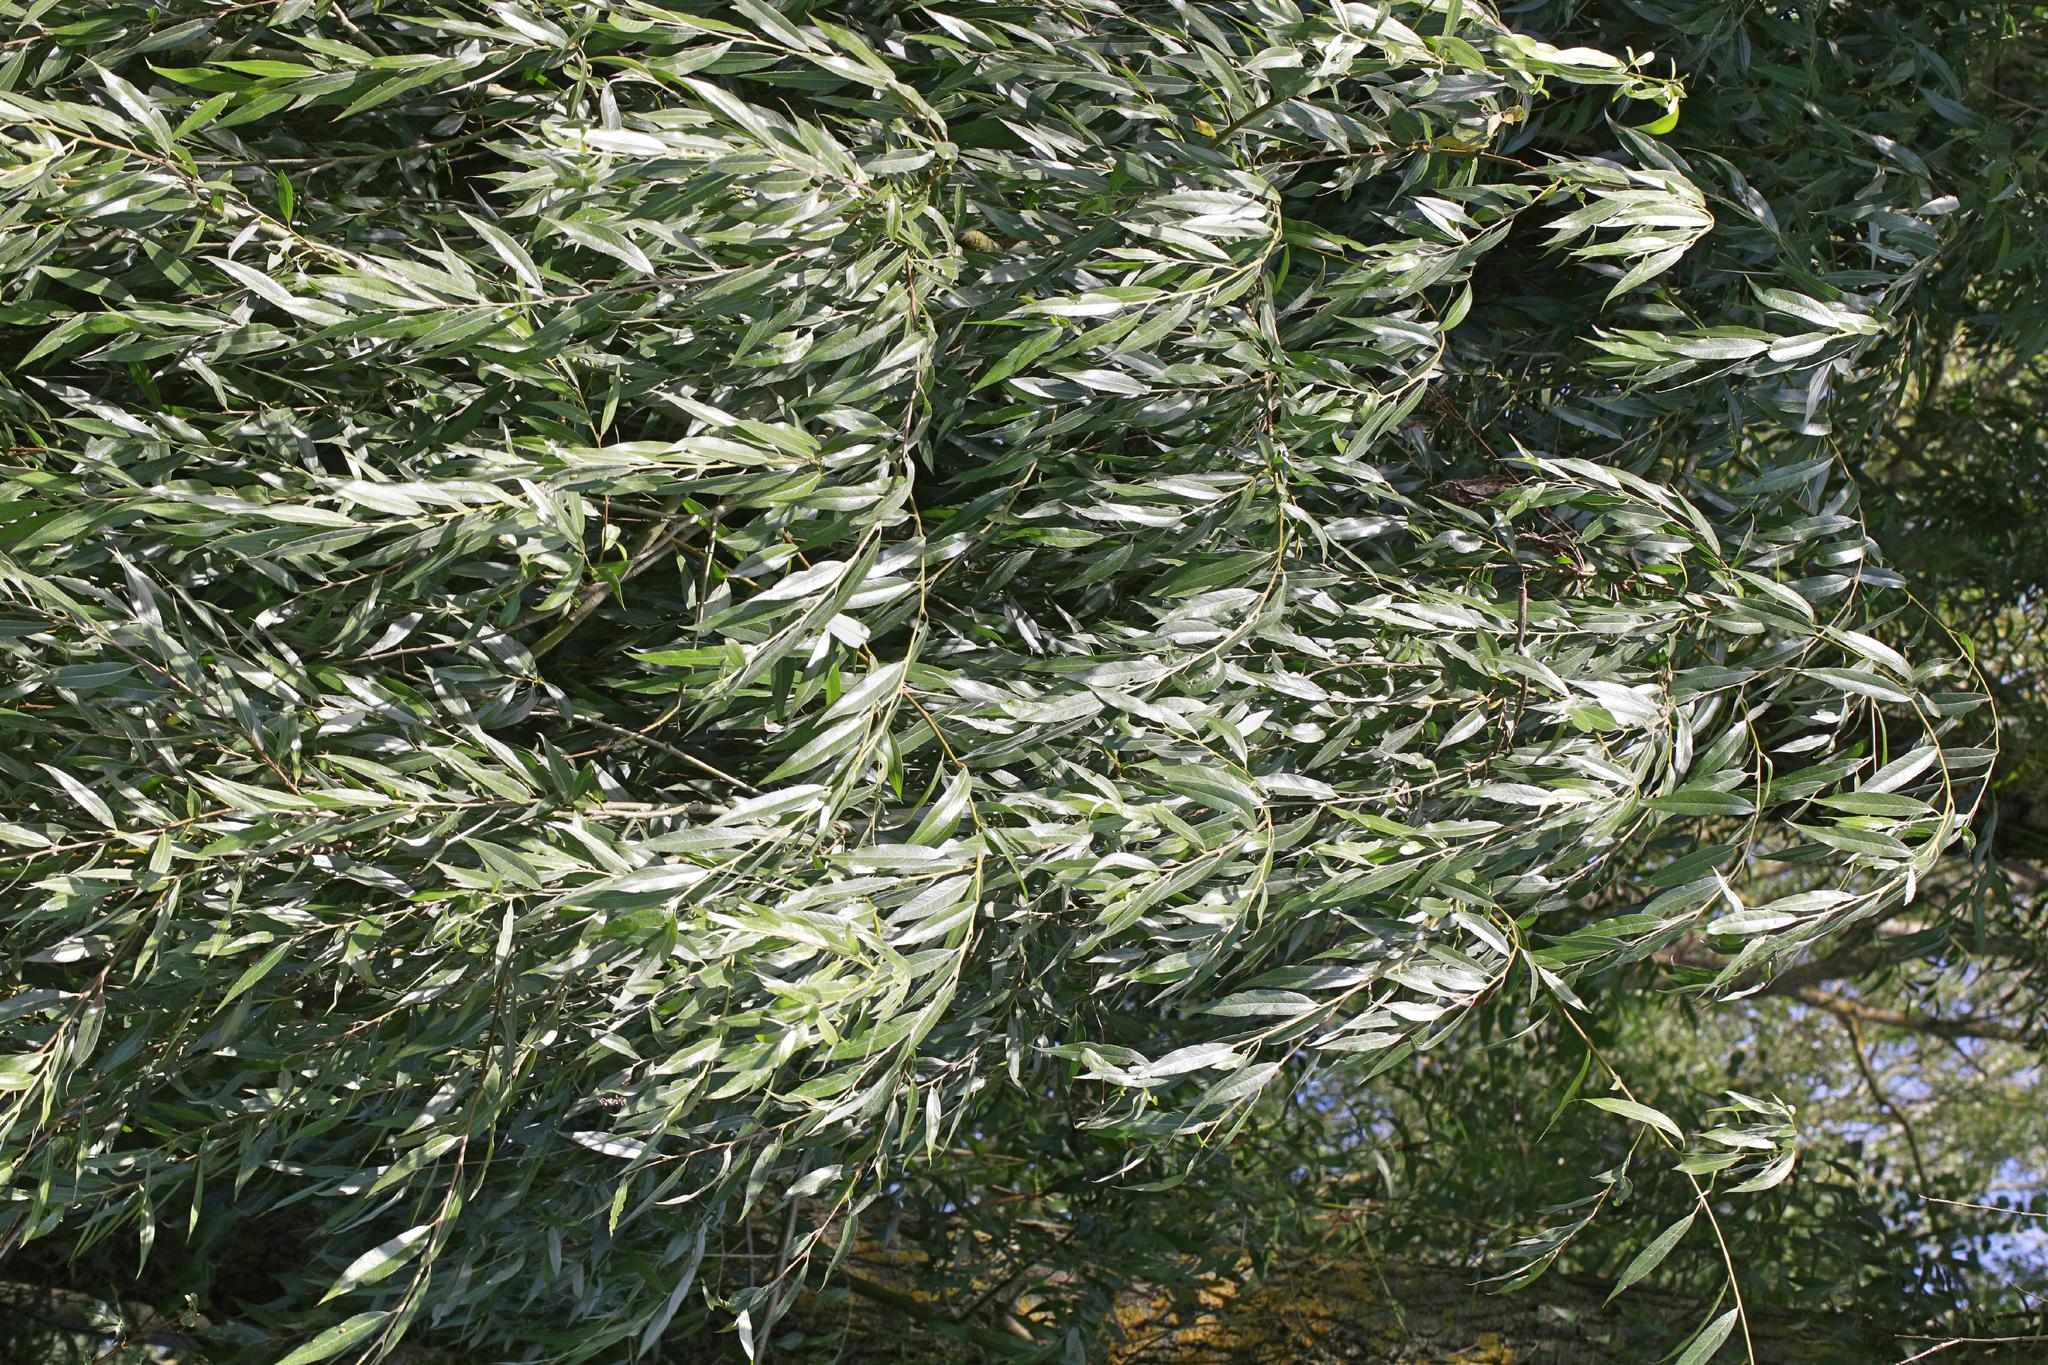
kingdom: Plantae
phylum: Tracheophyta
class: Magnoliopsida
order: Malpighiales
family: Salicaceae
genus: Salix
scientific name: Salix alba
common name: White willow
